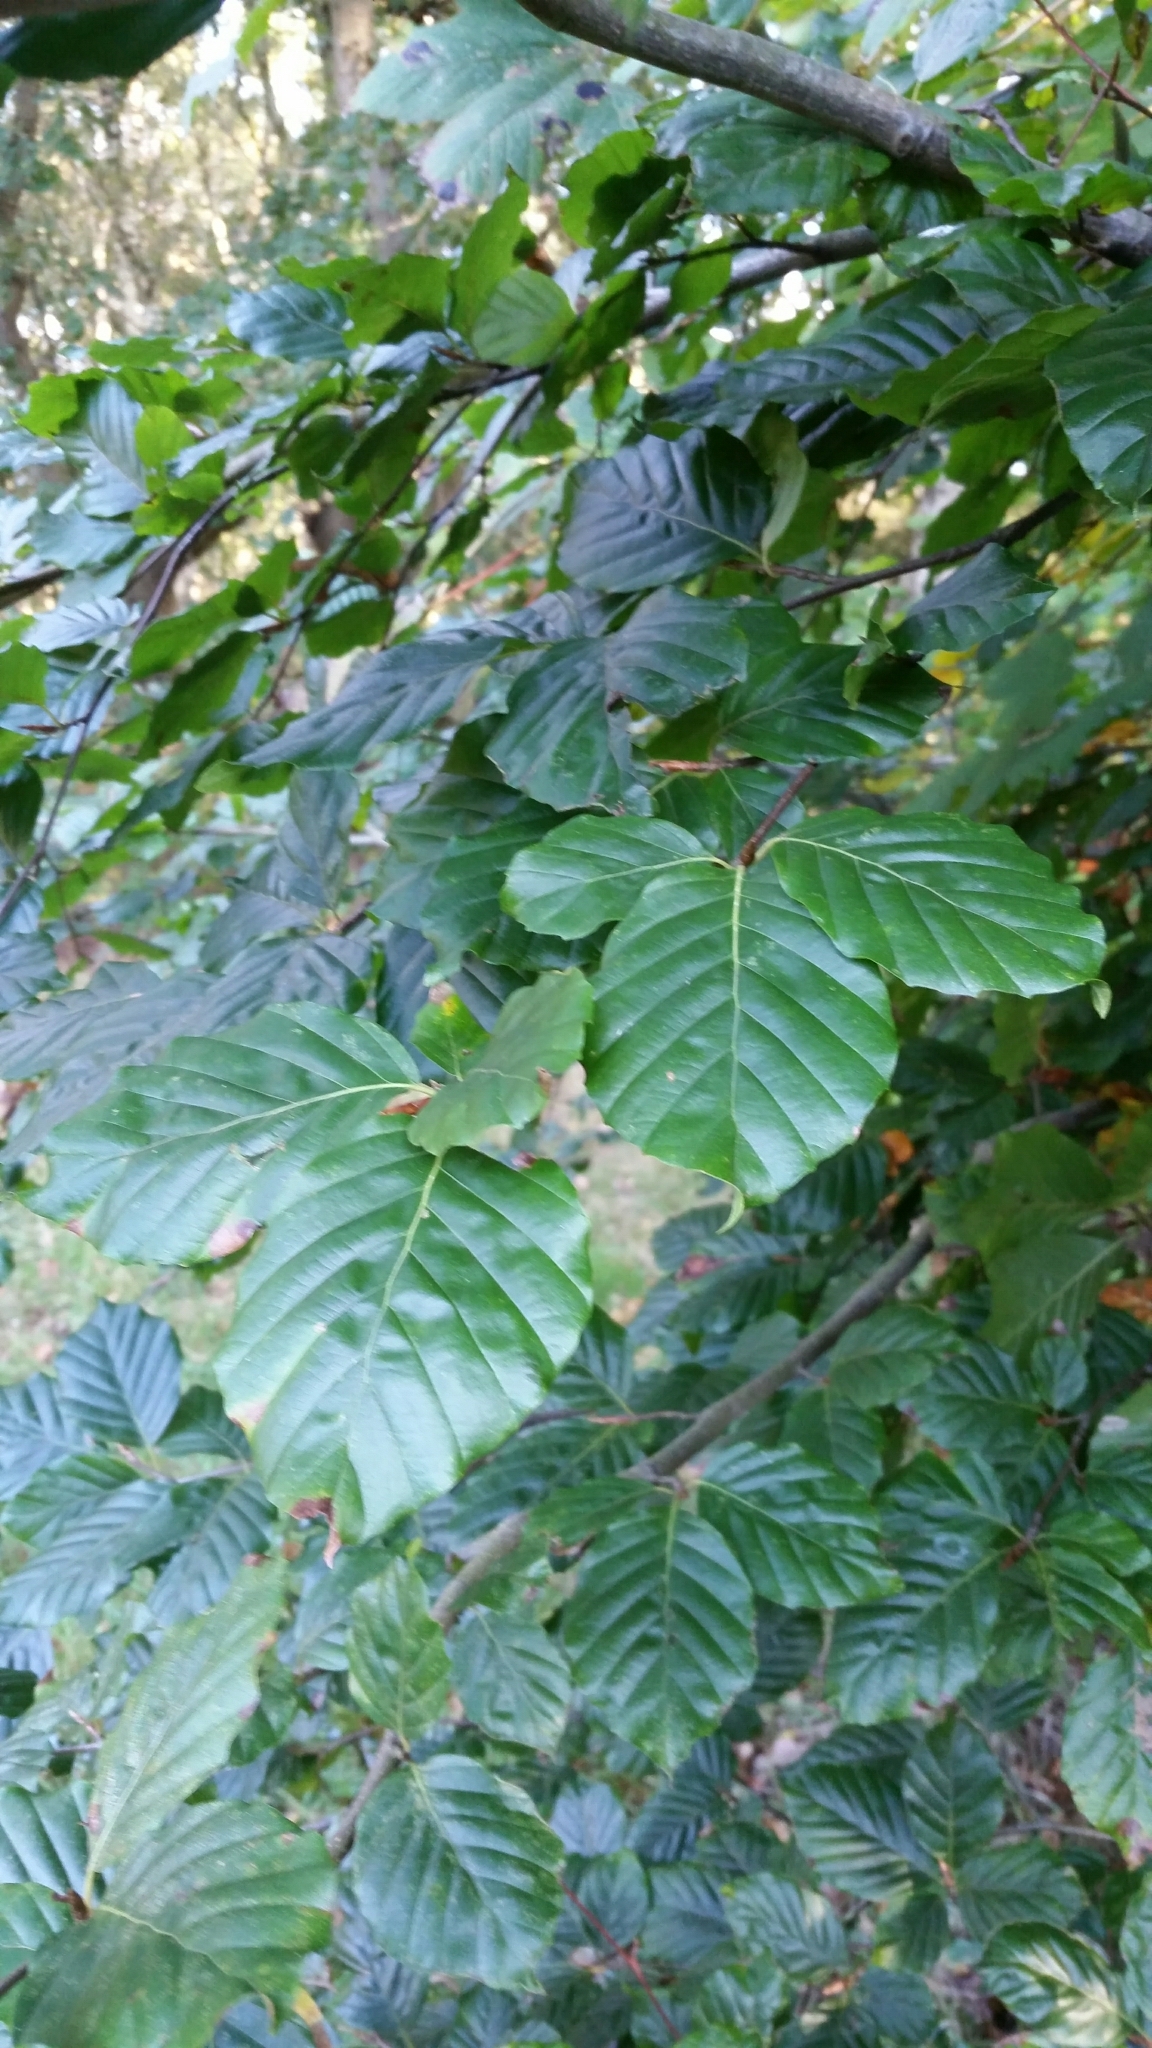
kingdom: Plantae
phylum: Tracheophyta
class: Magnoliopsida
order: Fagales
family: Fagaceae
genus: Fagus
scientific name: Fagus sylvatica
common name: Beech
